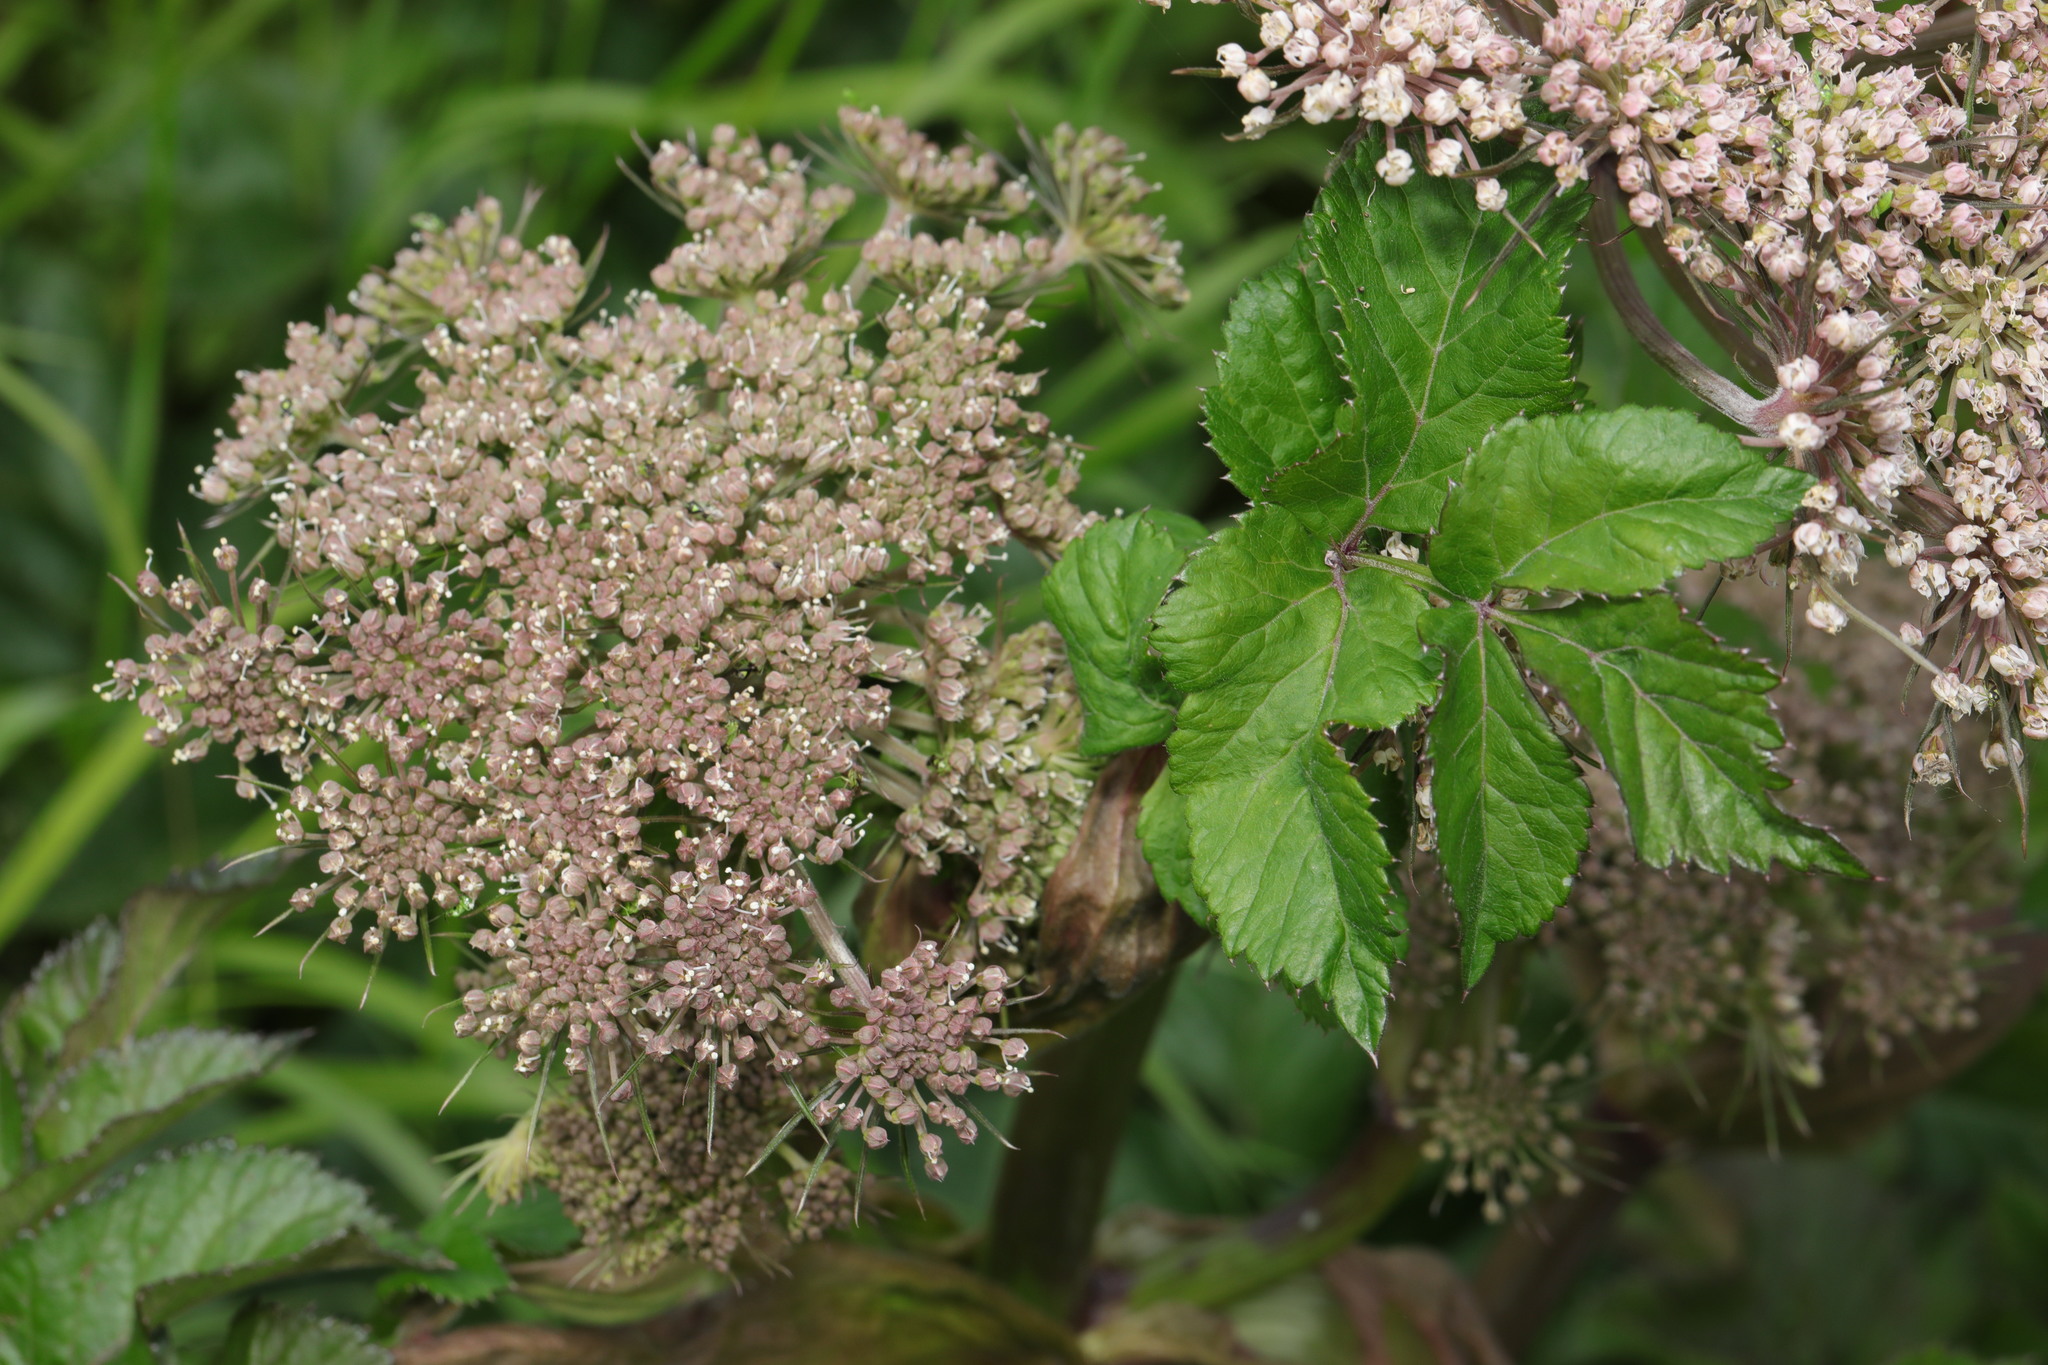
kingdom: Plantae
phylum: Tracheophyta
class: Magnoliopsida
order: Apiales
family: Apiaceae
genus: Angelica
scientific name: Angelica sylvestris
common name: Wild angelica
